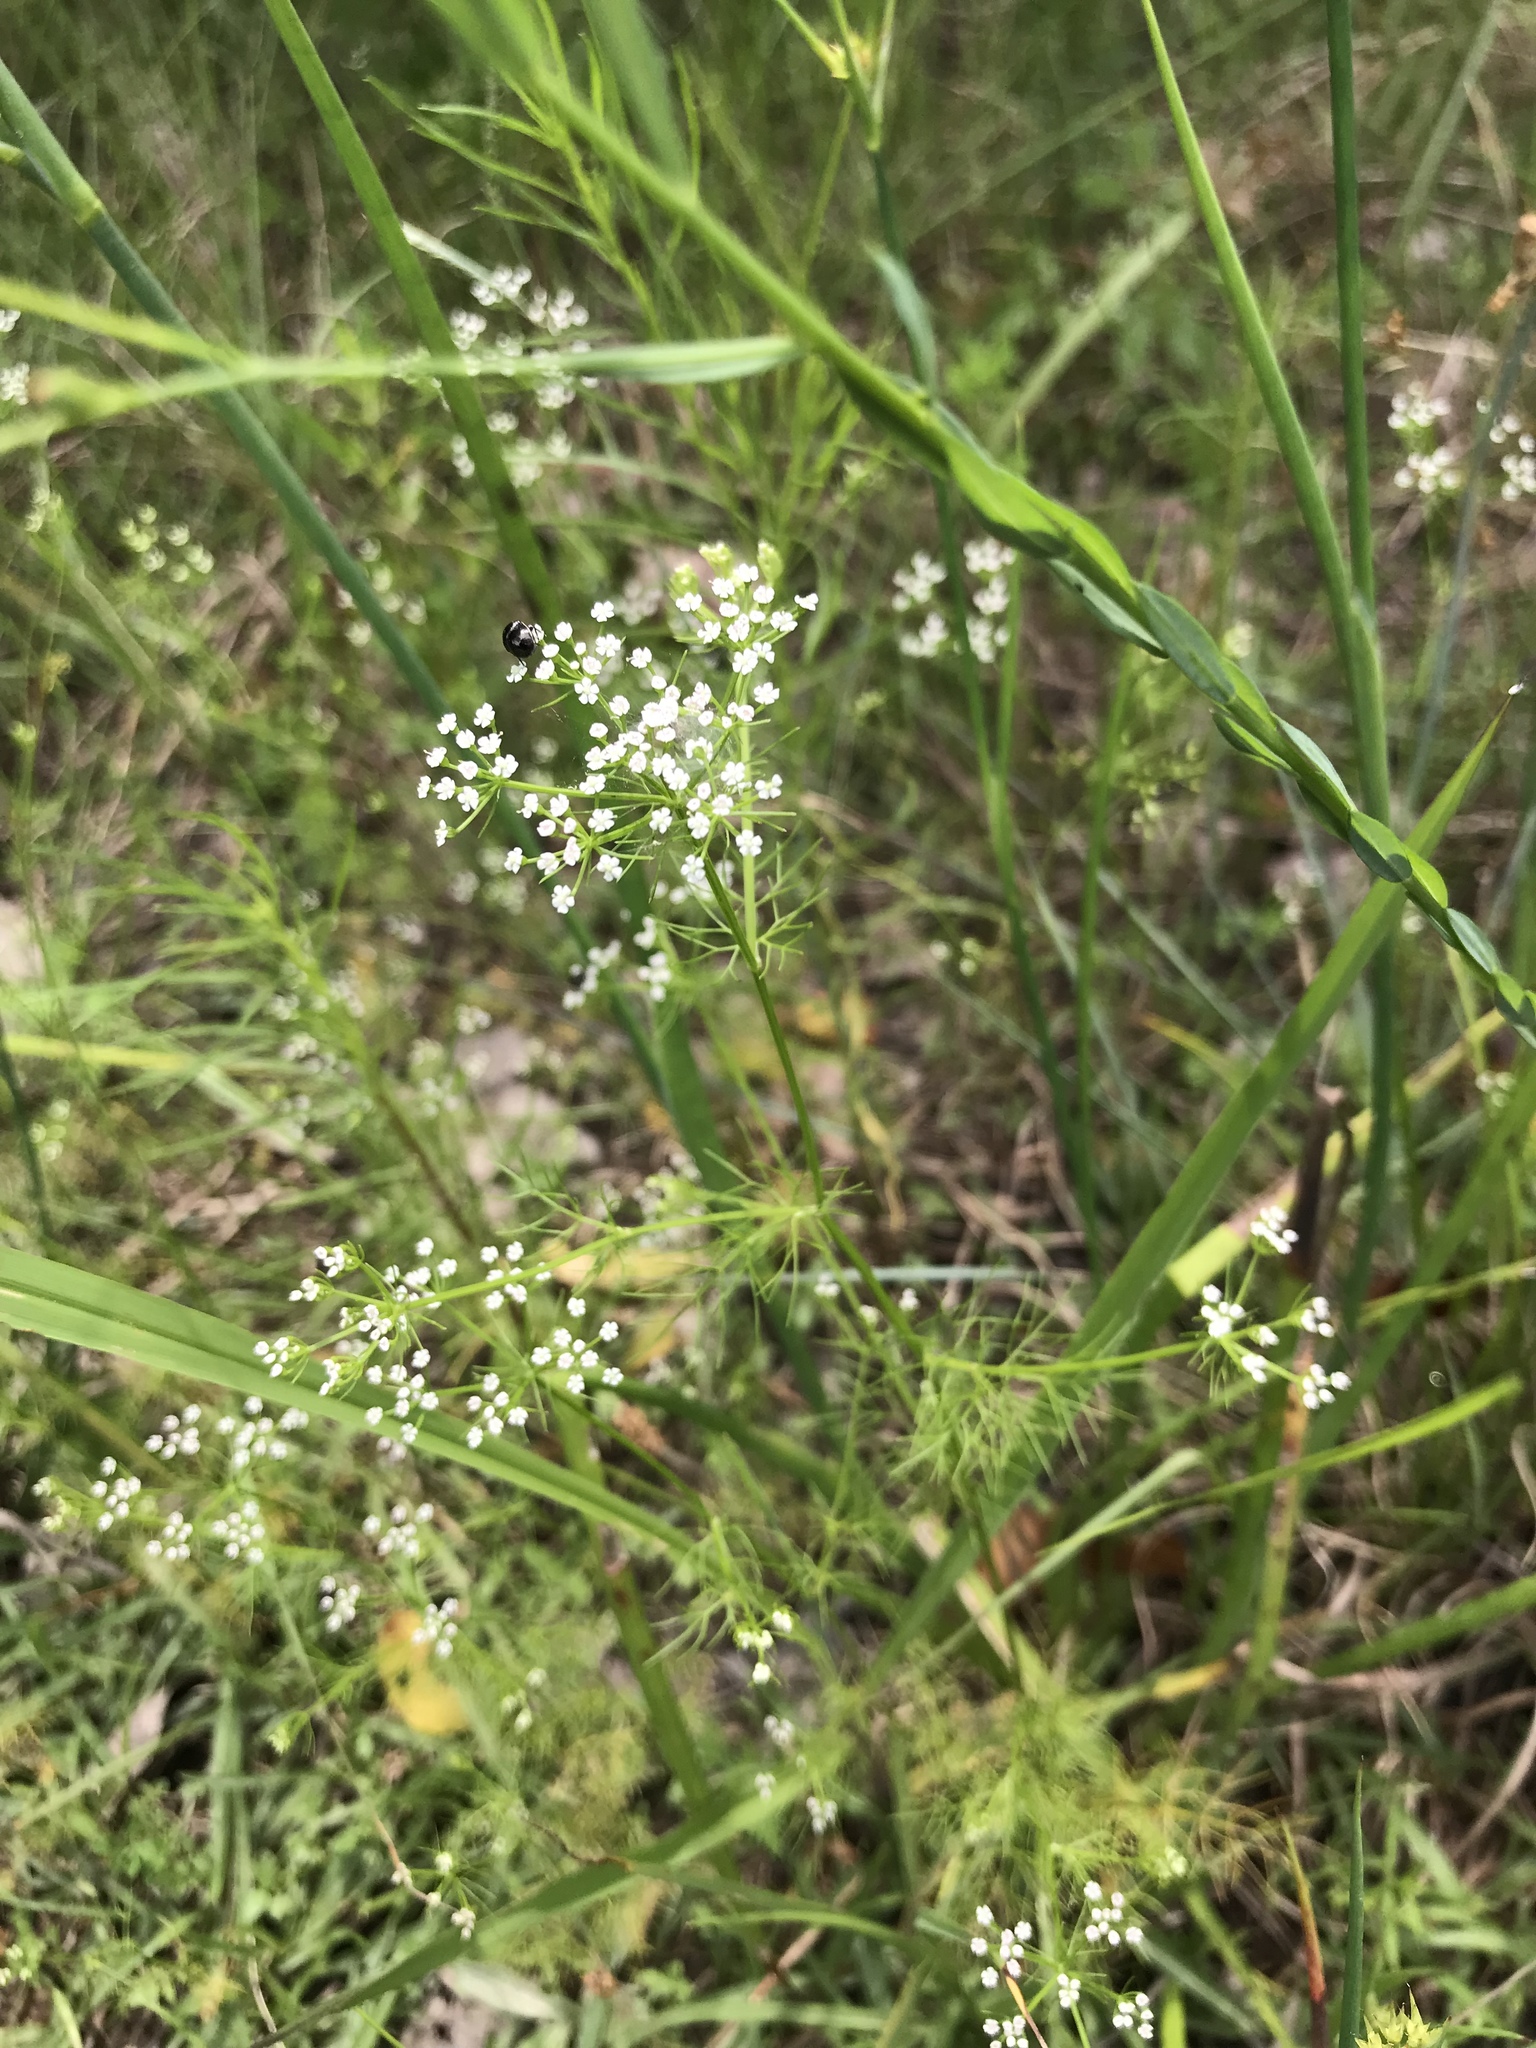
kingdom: Plantae
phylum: Tracheophyta
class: Magnoliopsida
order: Apiales
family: Apiaceae
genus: Ptilimnium
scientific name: Ptilimnium capillaceum
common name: Herbwilliam
